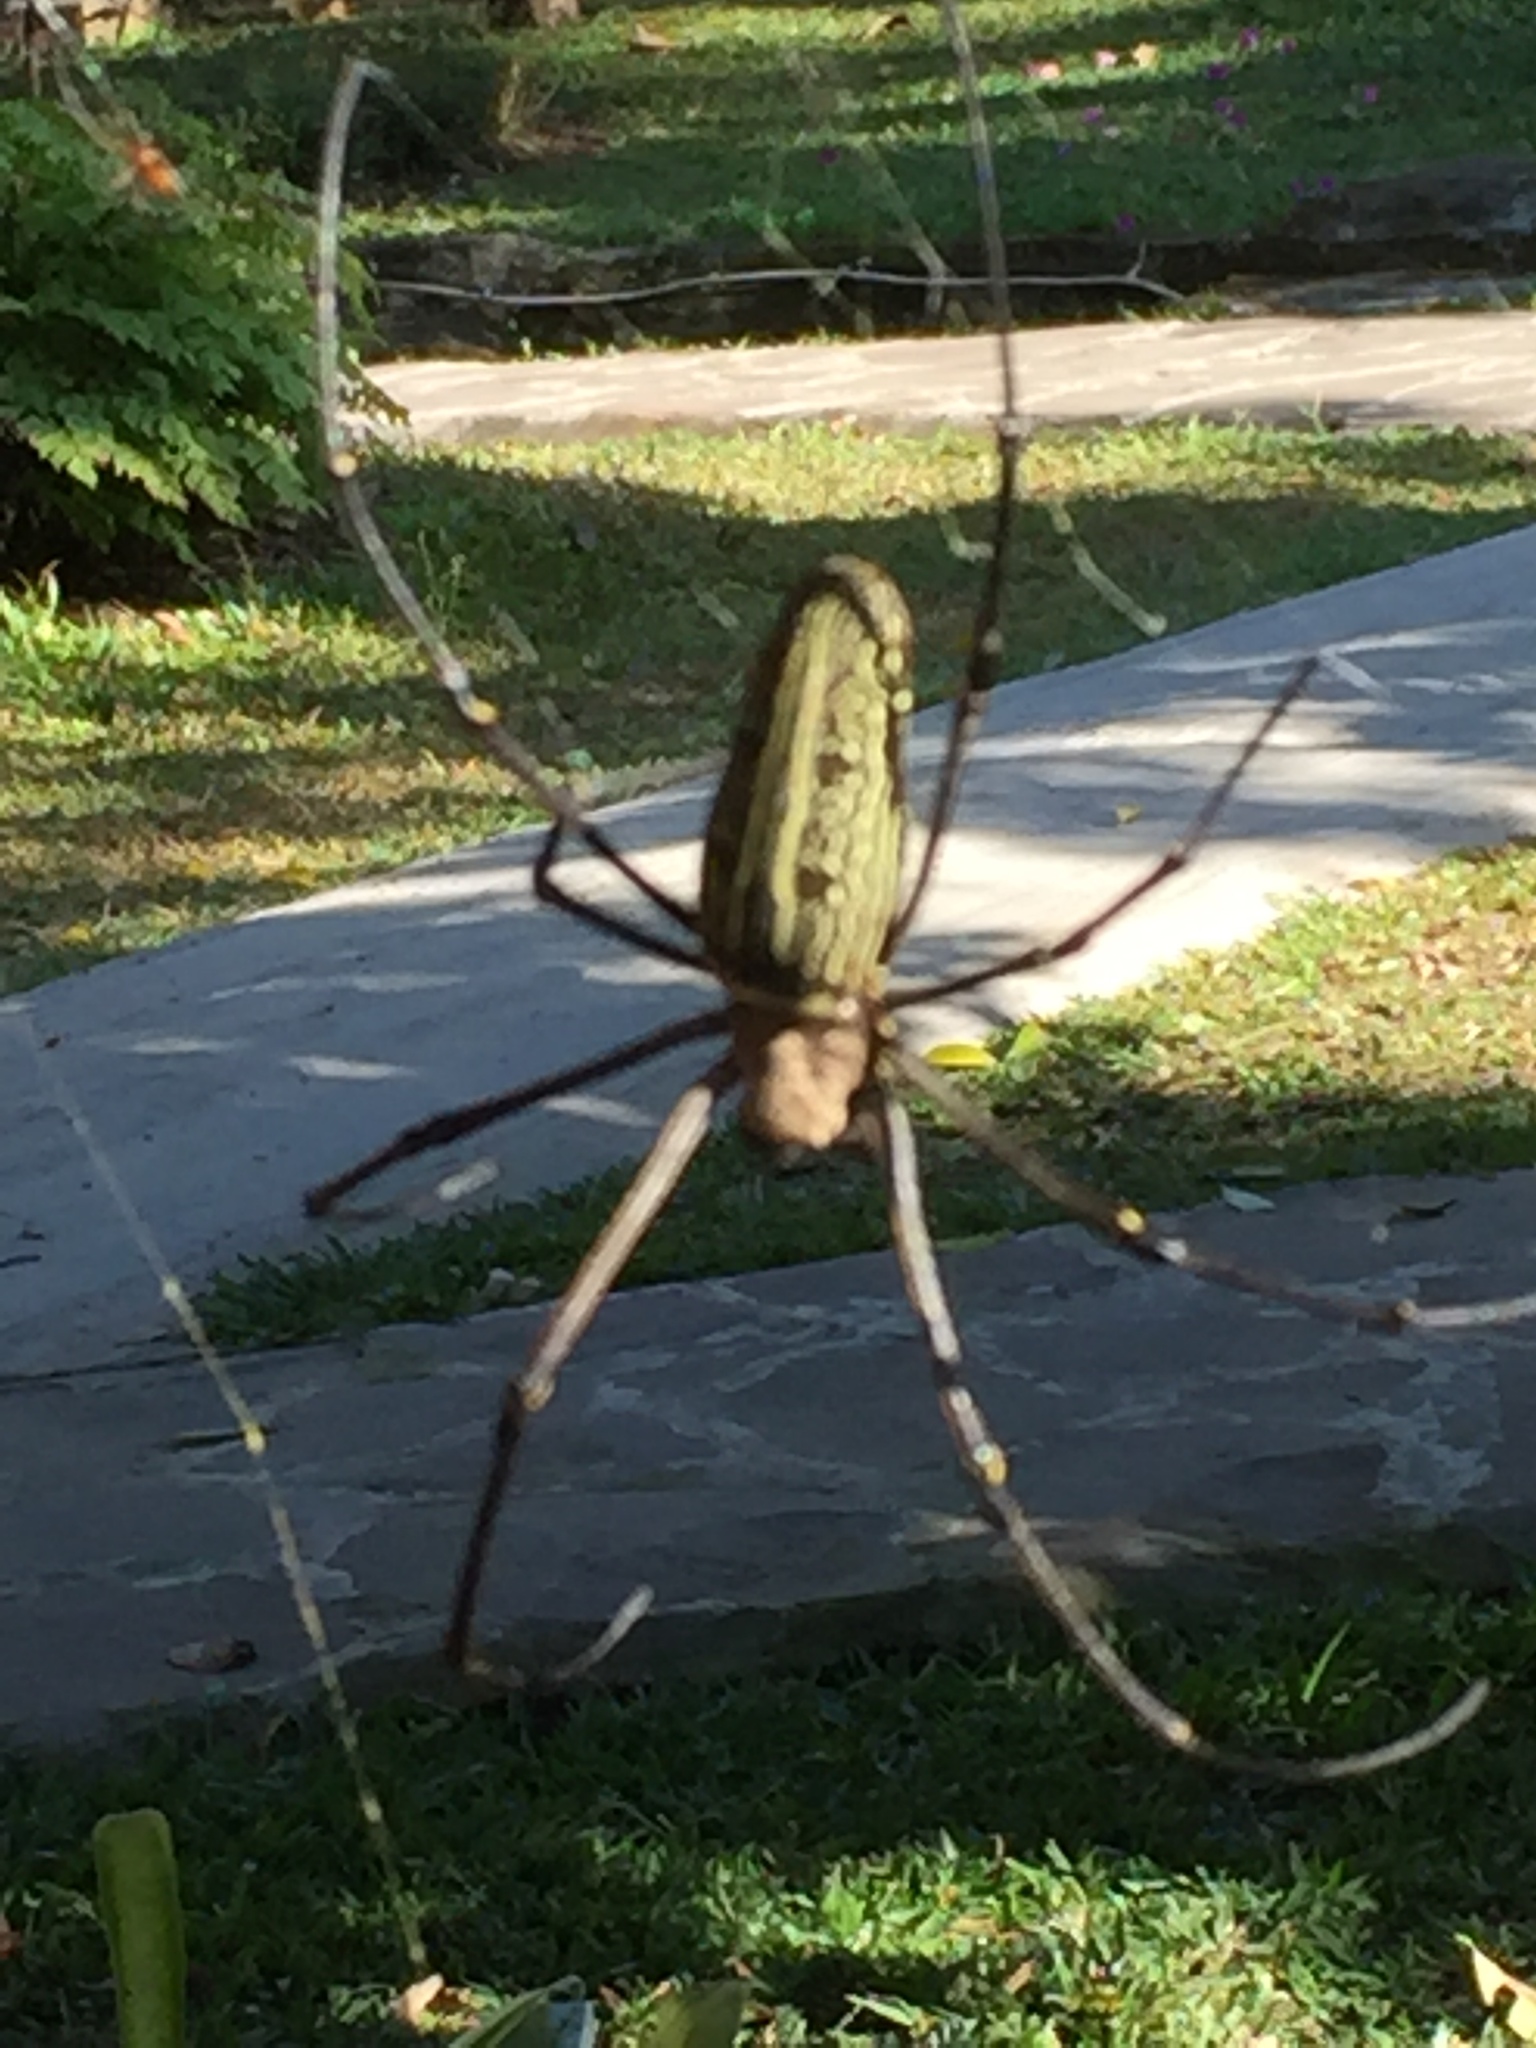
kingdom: Animalia
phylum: Arthropoda
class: Arachnida
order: Araneae
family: Araneidae
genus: Nephila
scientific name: Nephila pilipes
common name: Giant golden orb weaver
